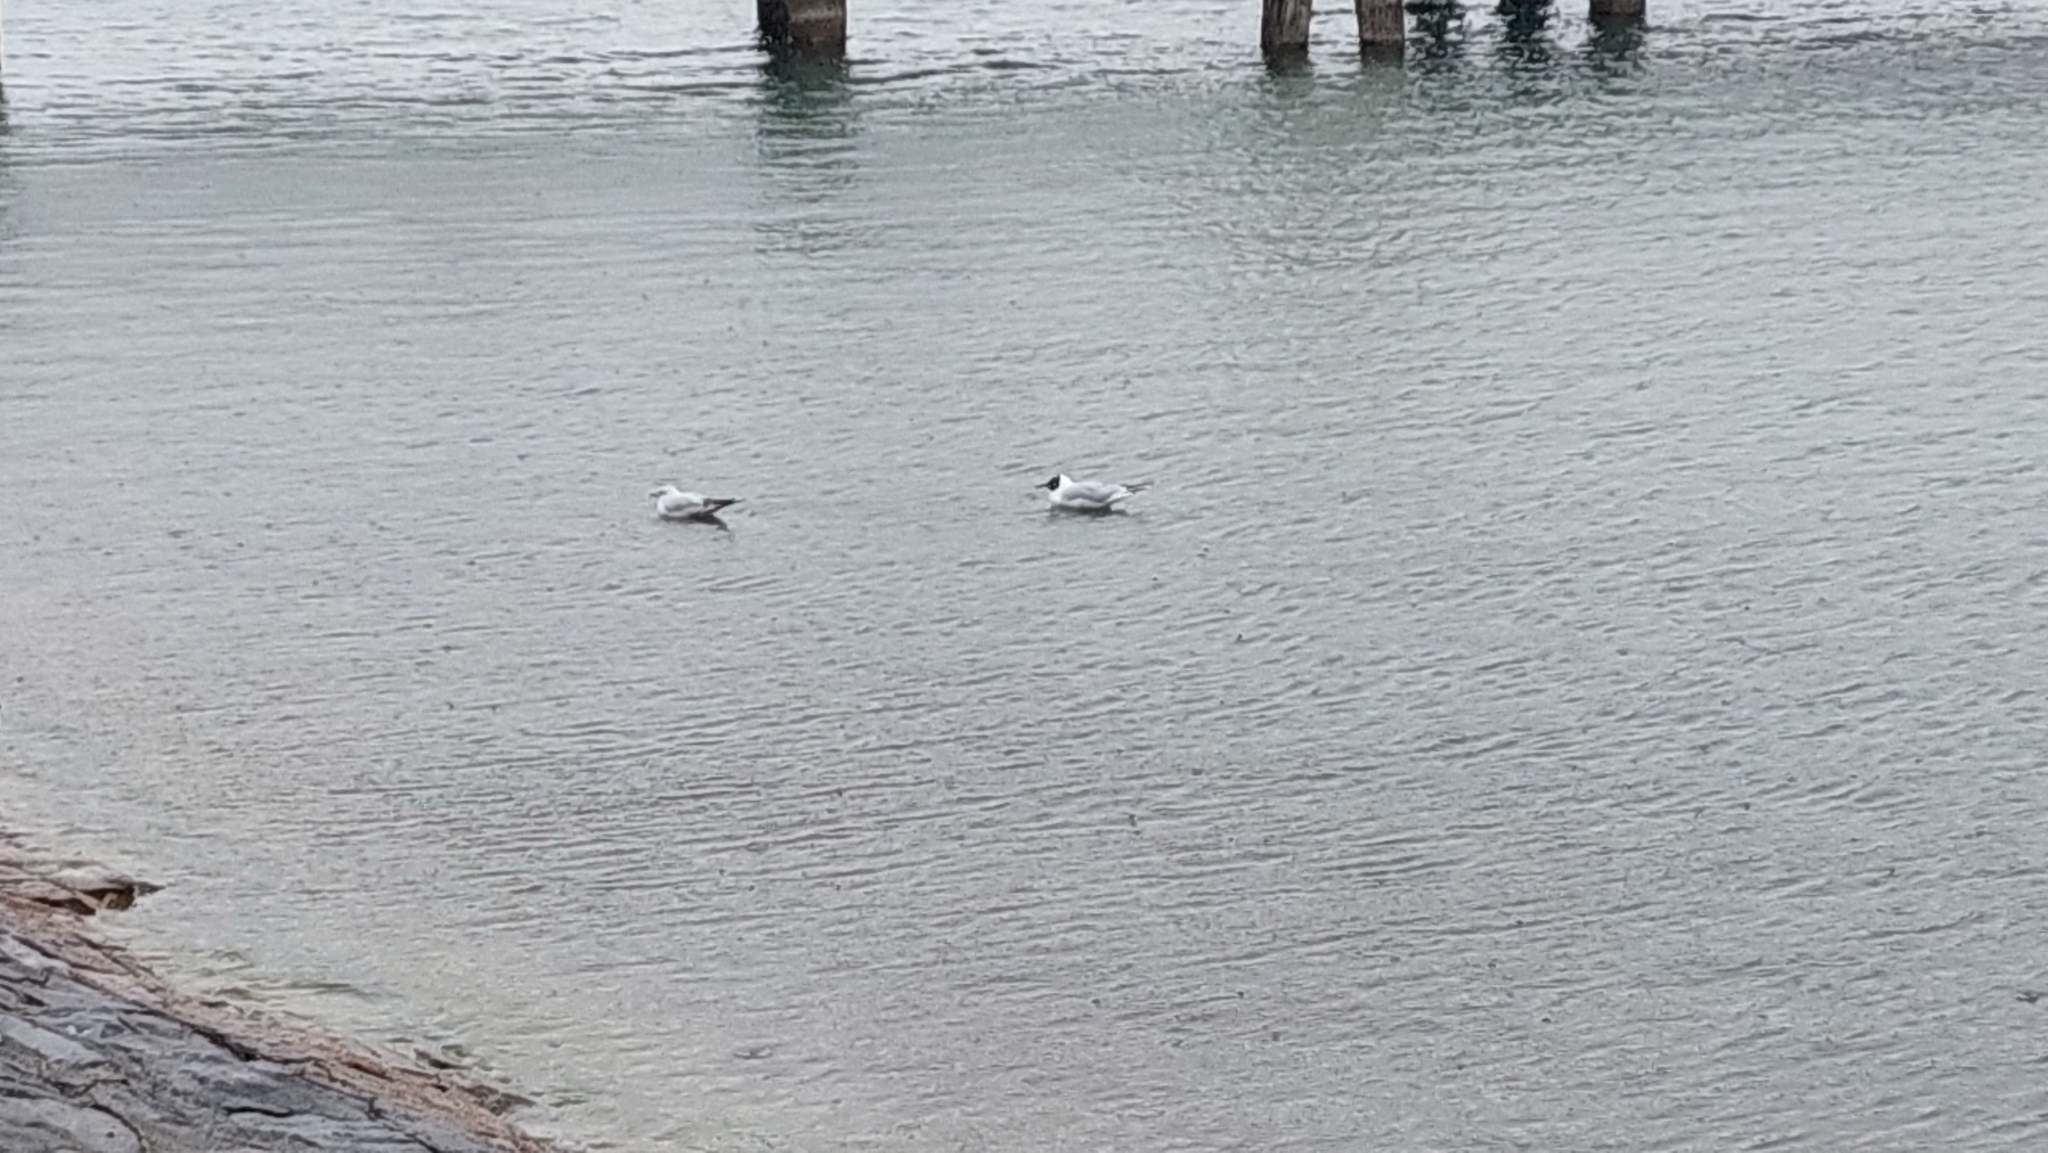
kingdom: Animalia
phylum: Chordata
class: Aves
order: Charadriiformes
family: Laridae
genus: Chroicocephalus
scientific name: Chroicocephalus ridibundus
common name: Black-headed gull
